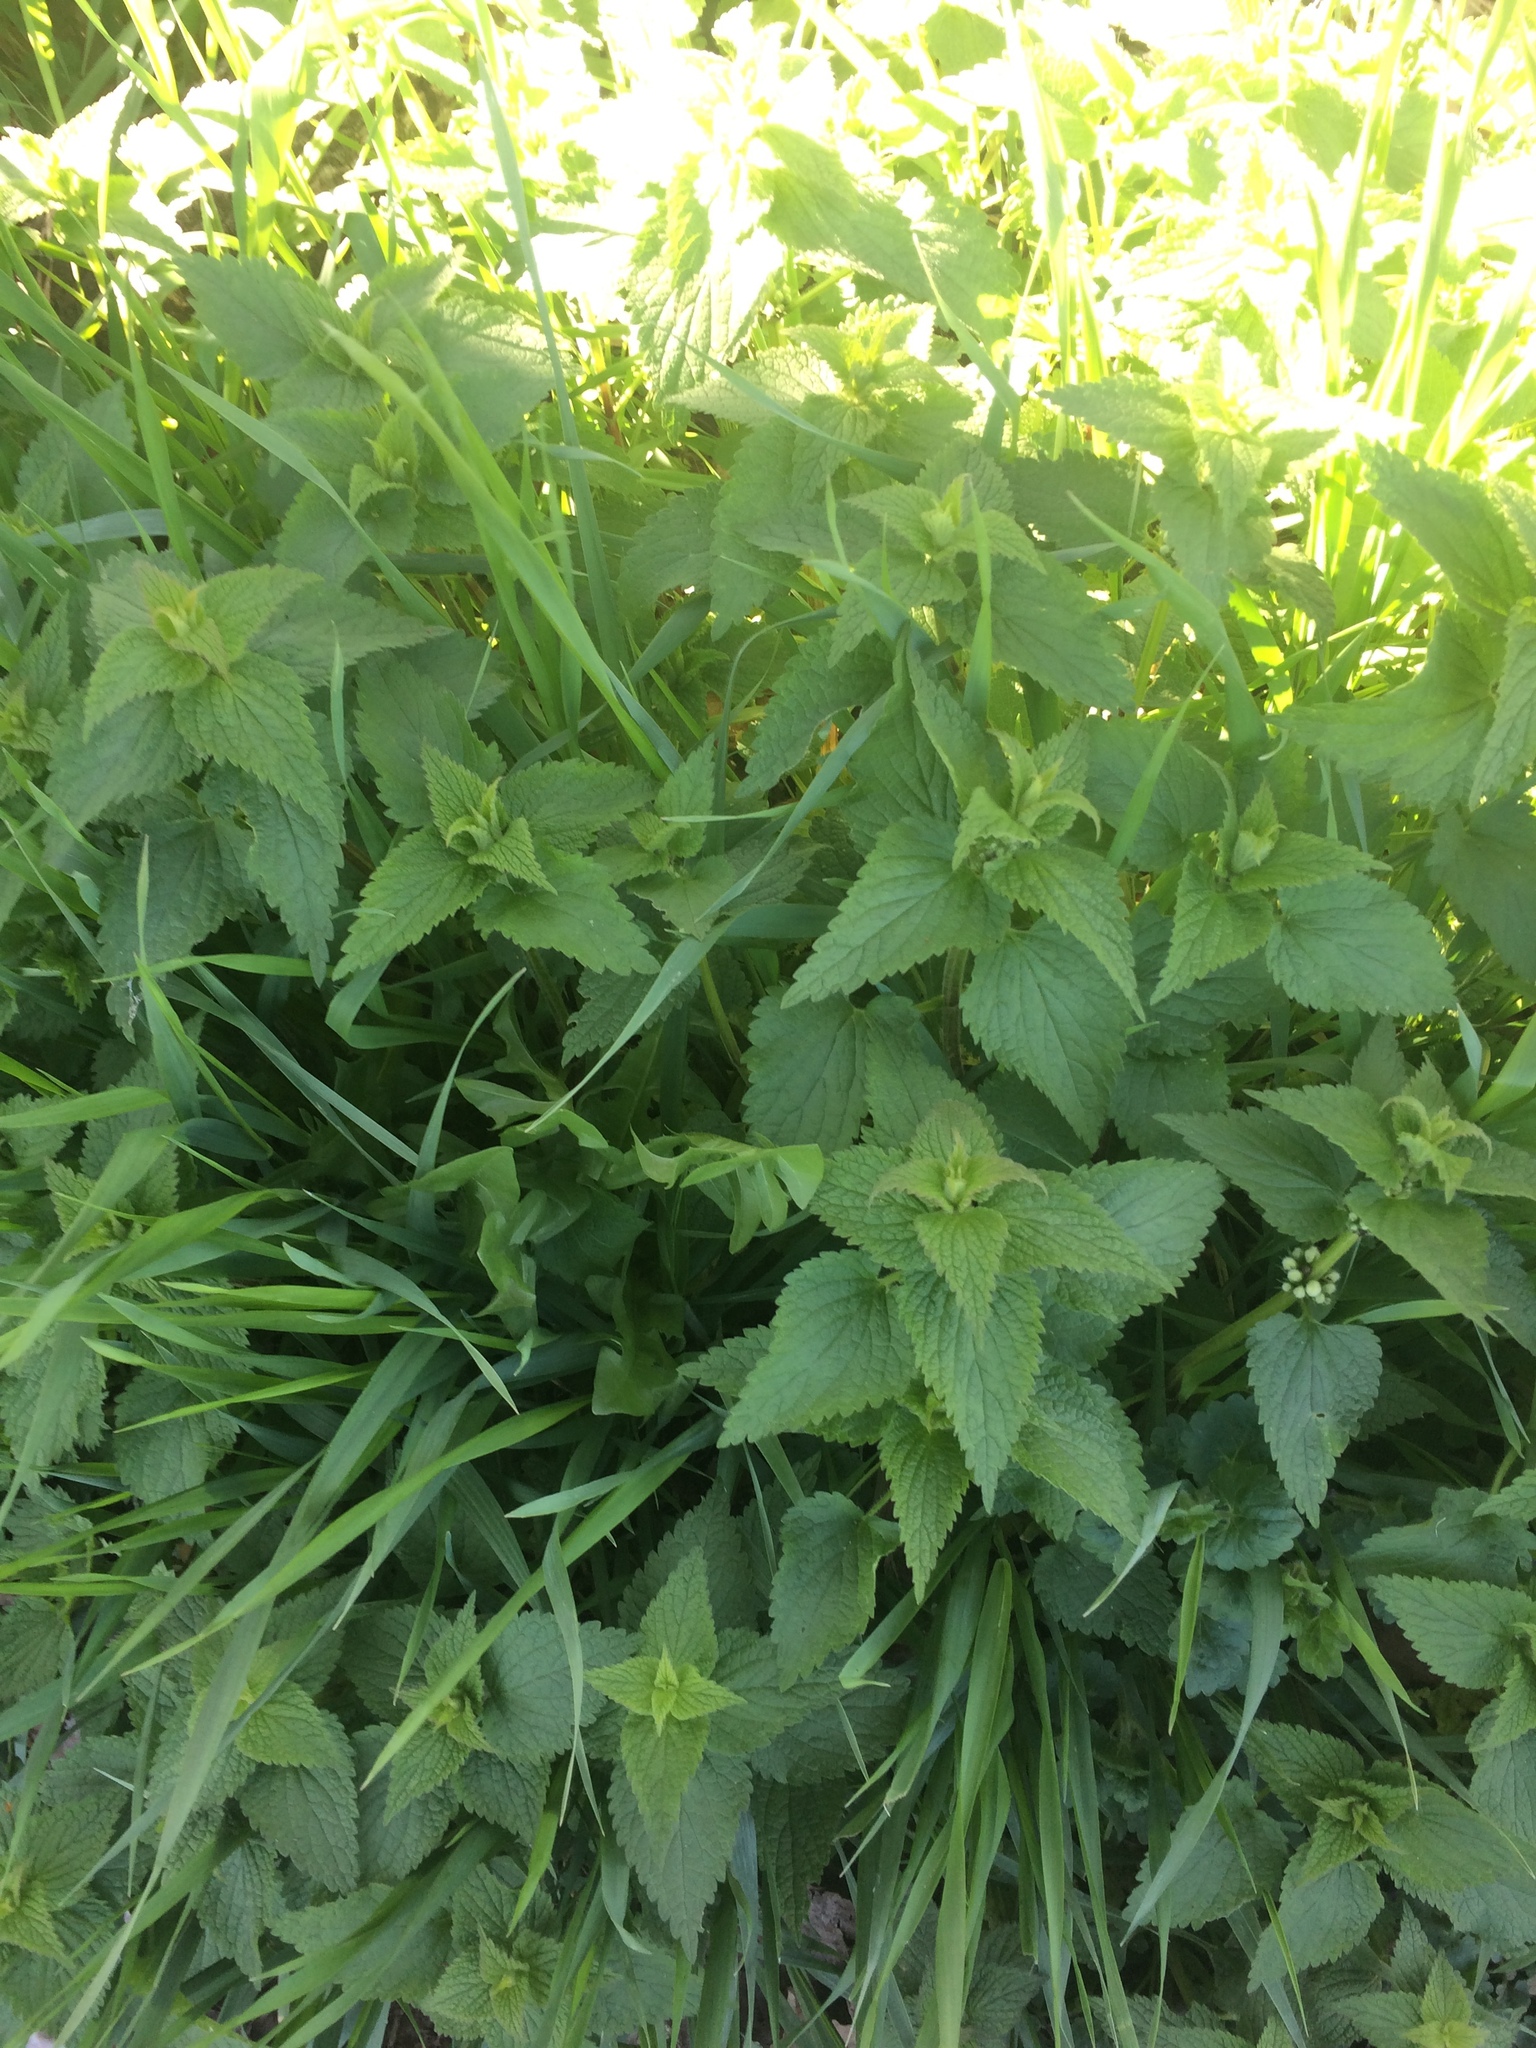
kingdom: Plantae
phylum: Tracheophyta
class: Magnoliopsida
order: Lamiales
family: Lamiaceae
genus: Lamium
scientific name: Lamium album
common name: White dead-nettle
